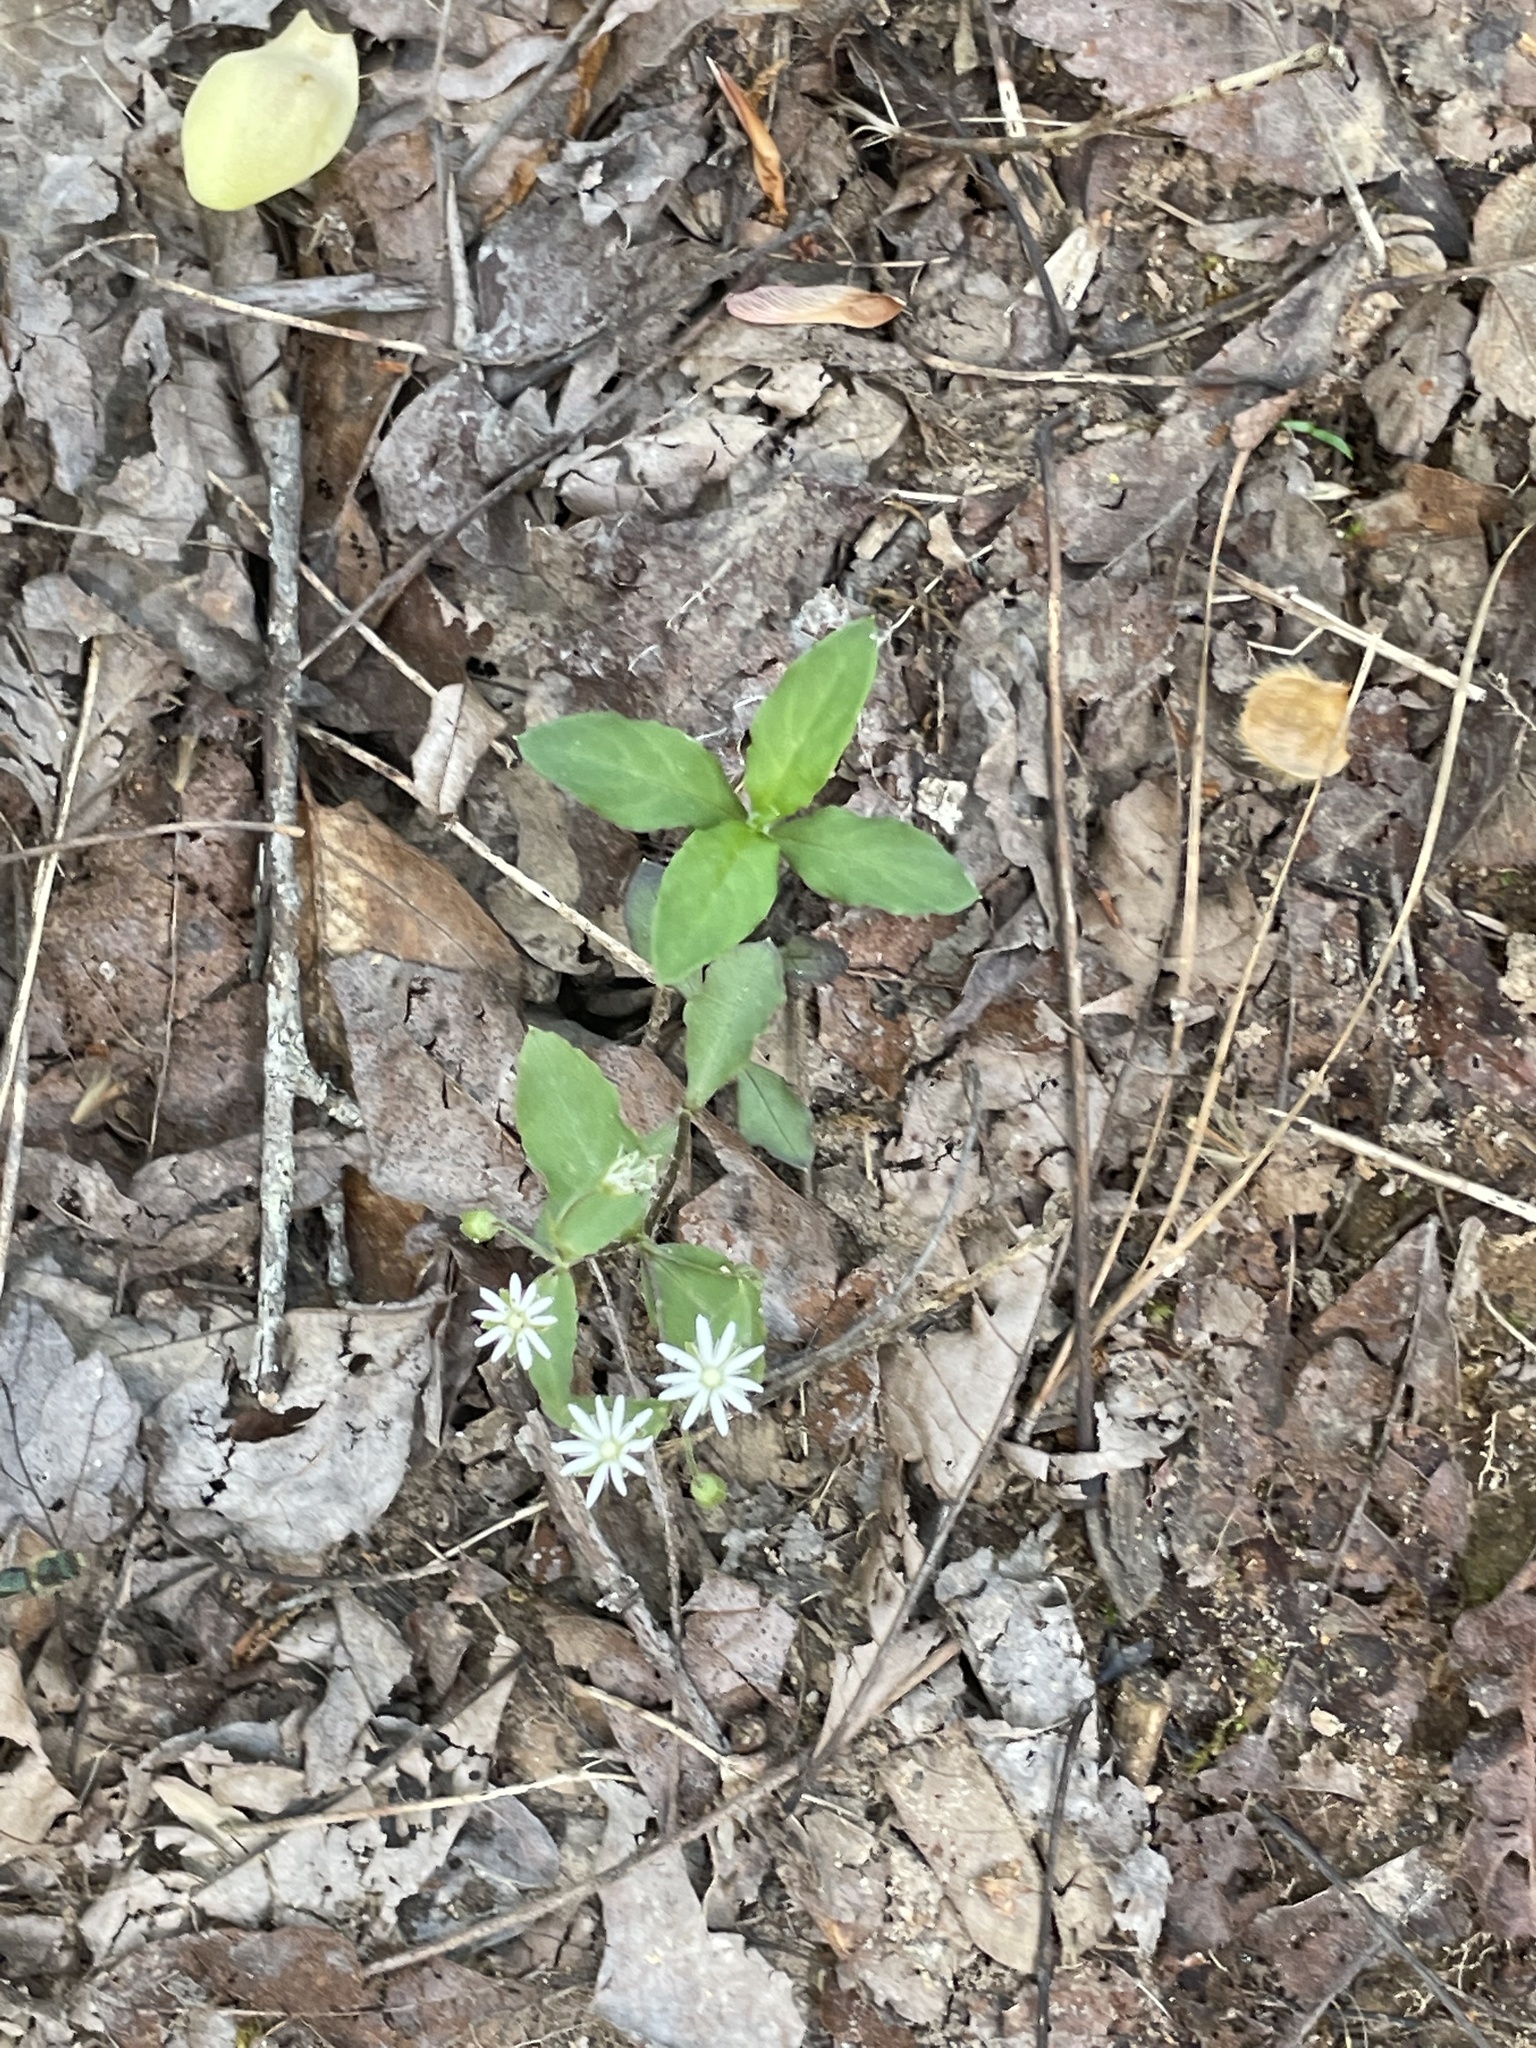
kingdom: Plantae
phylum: Tracheophyta
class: Magnoliopsida
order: Caryophyllales
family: Caryophyllaceae
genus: Stellaria
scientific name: Stellaria pubera
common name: Star chickweed
